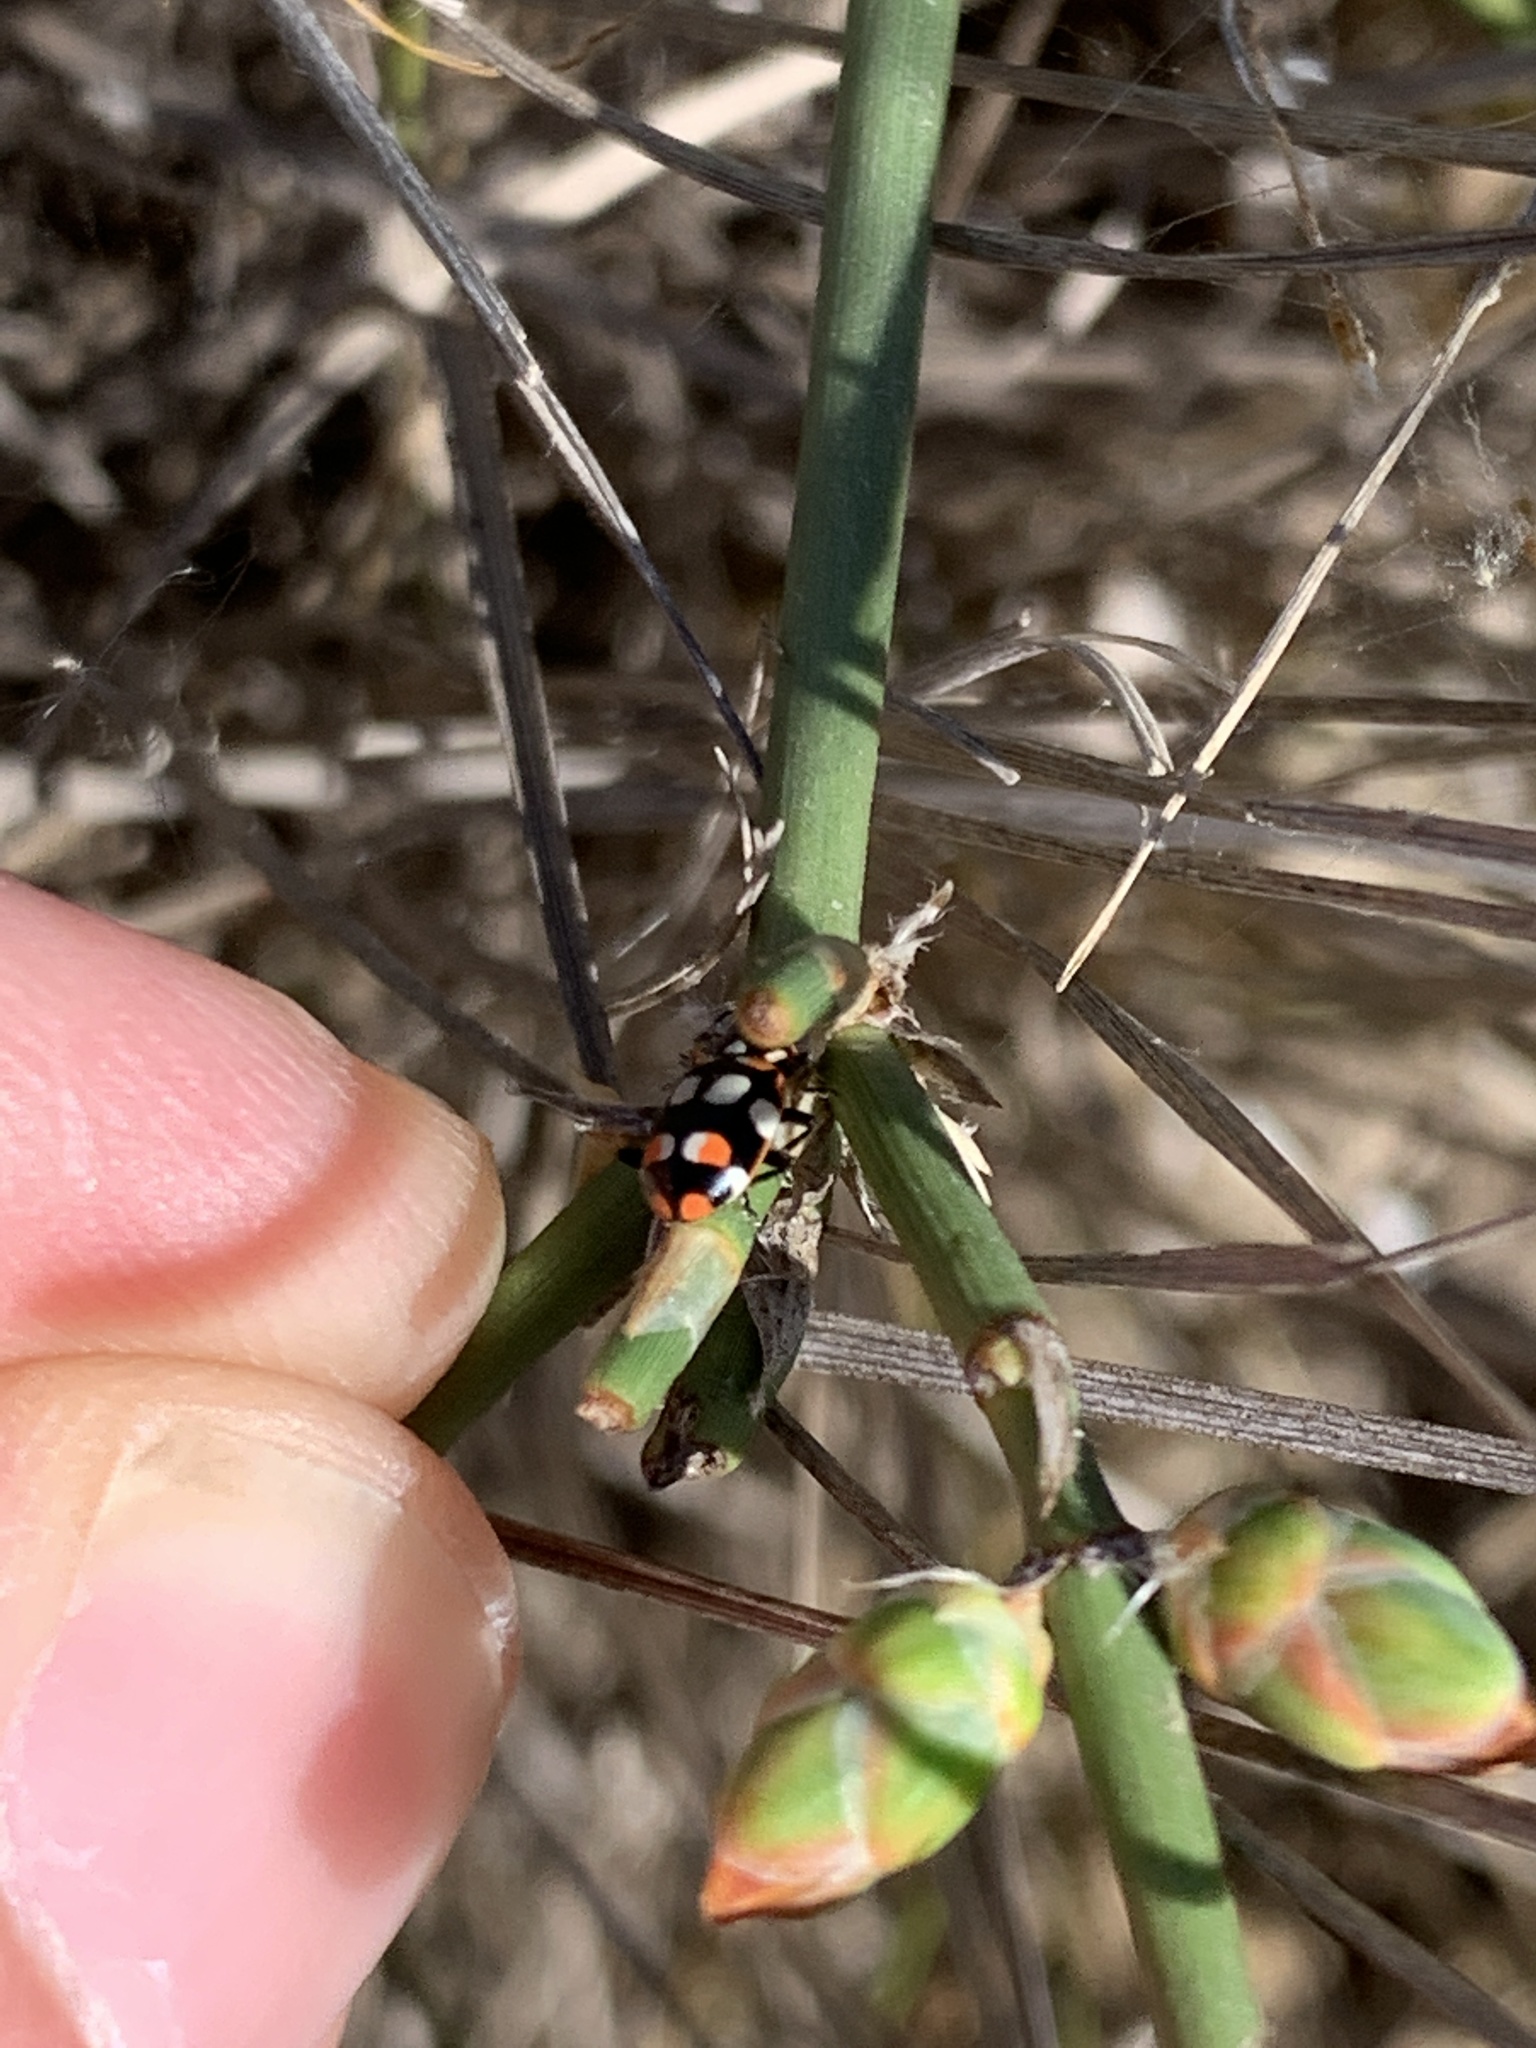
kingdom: Animalia
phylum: Arthropoda
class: Insecta
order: Coleoptera
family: Coccinellidae
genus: Eriopis
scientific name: Eriopis connexa
